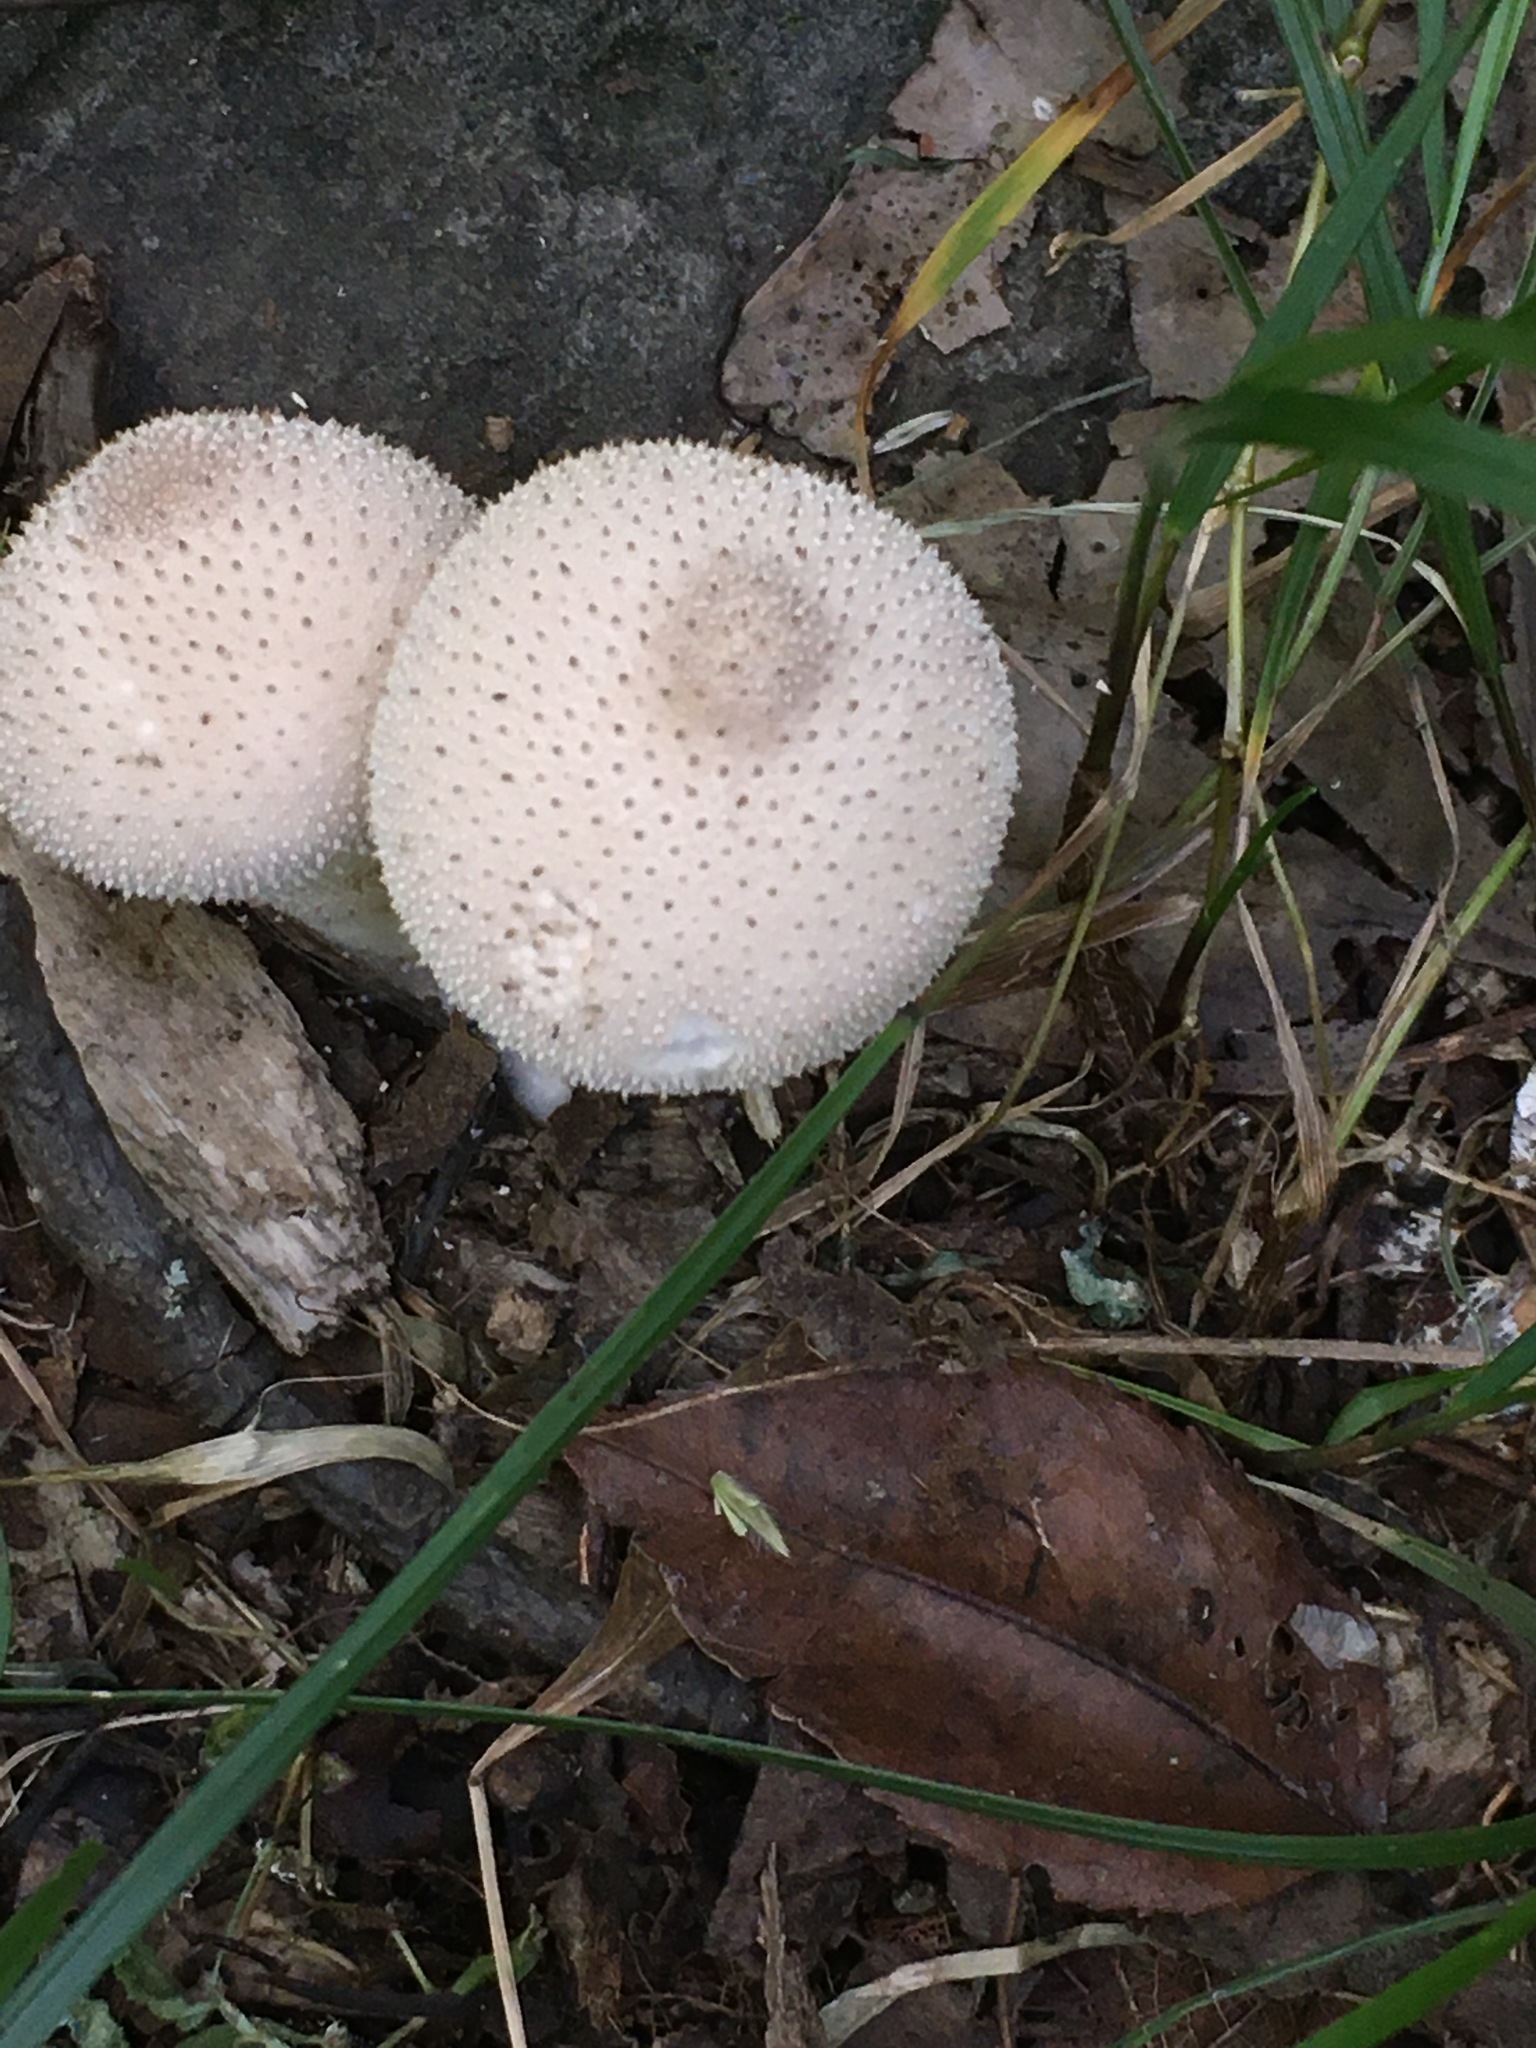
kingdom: Fungi
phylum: Basidiomycota
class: Agaricomycetes
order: Agaricales
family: Lycoperdaceae
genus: Lycoperdon
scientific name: Lycoperdon perlatum
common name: Common puffball
